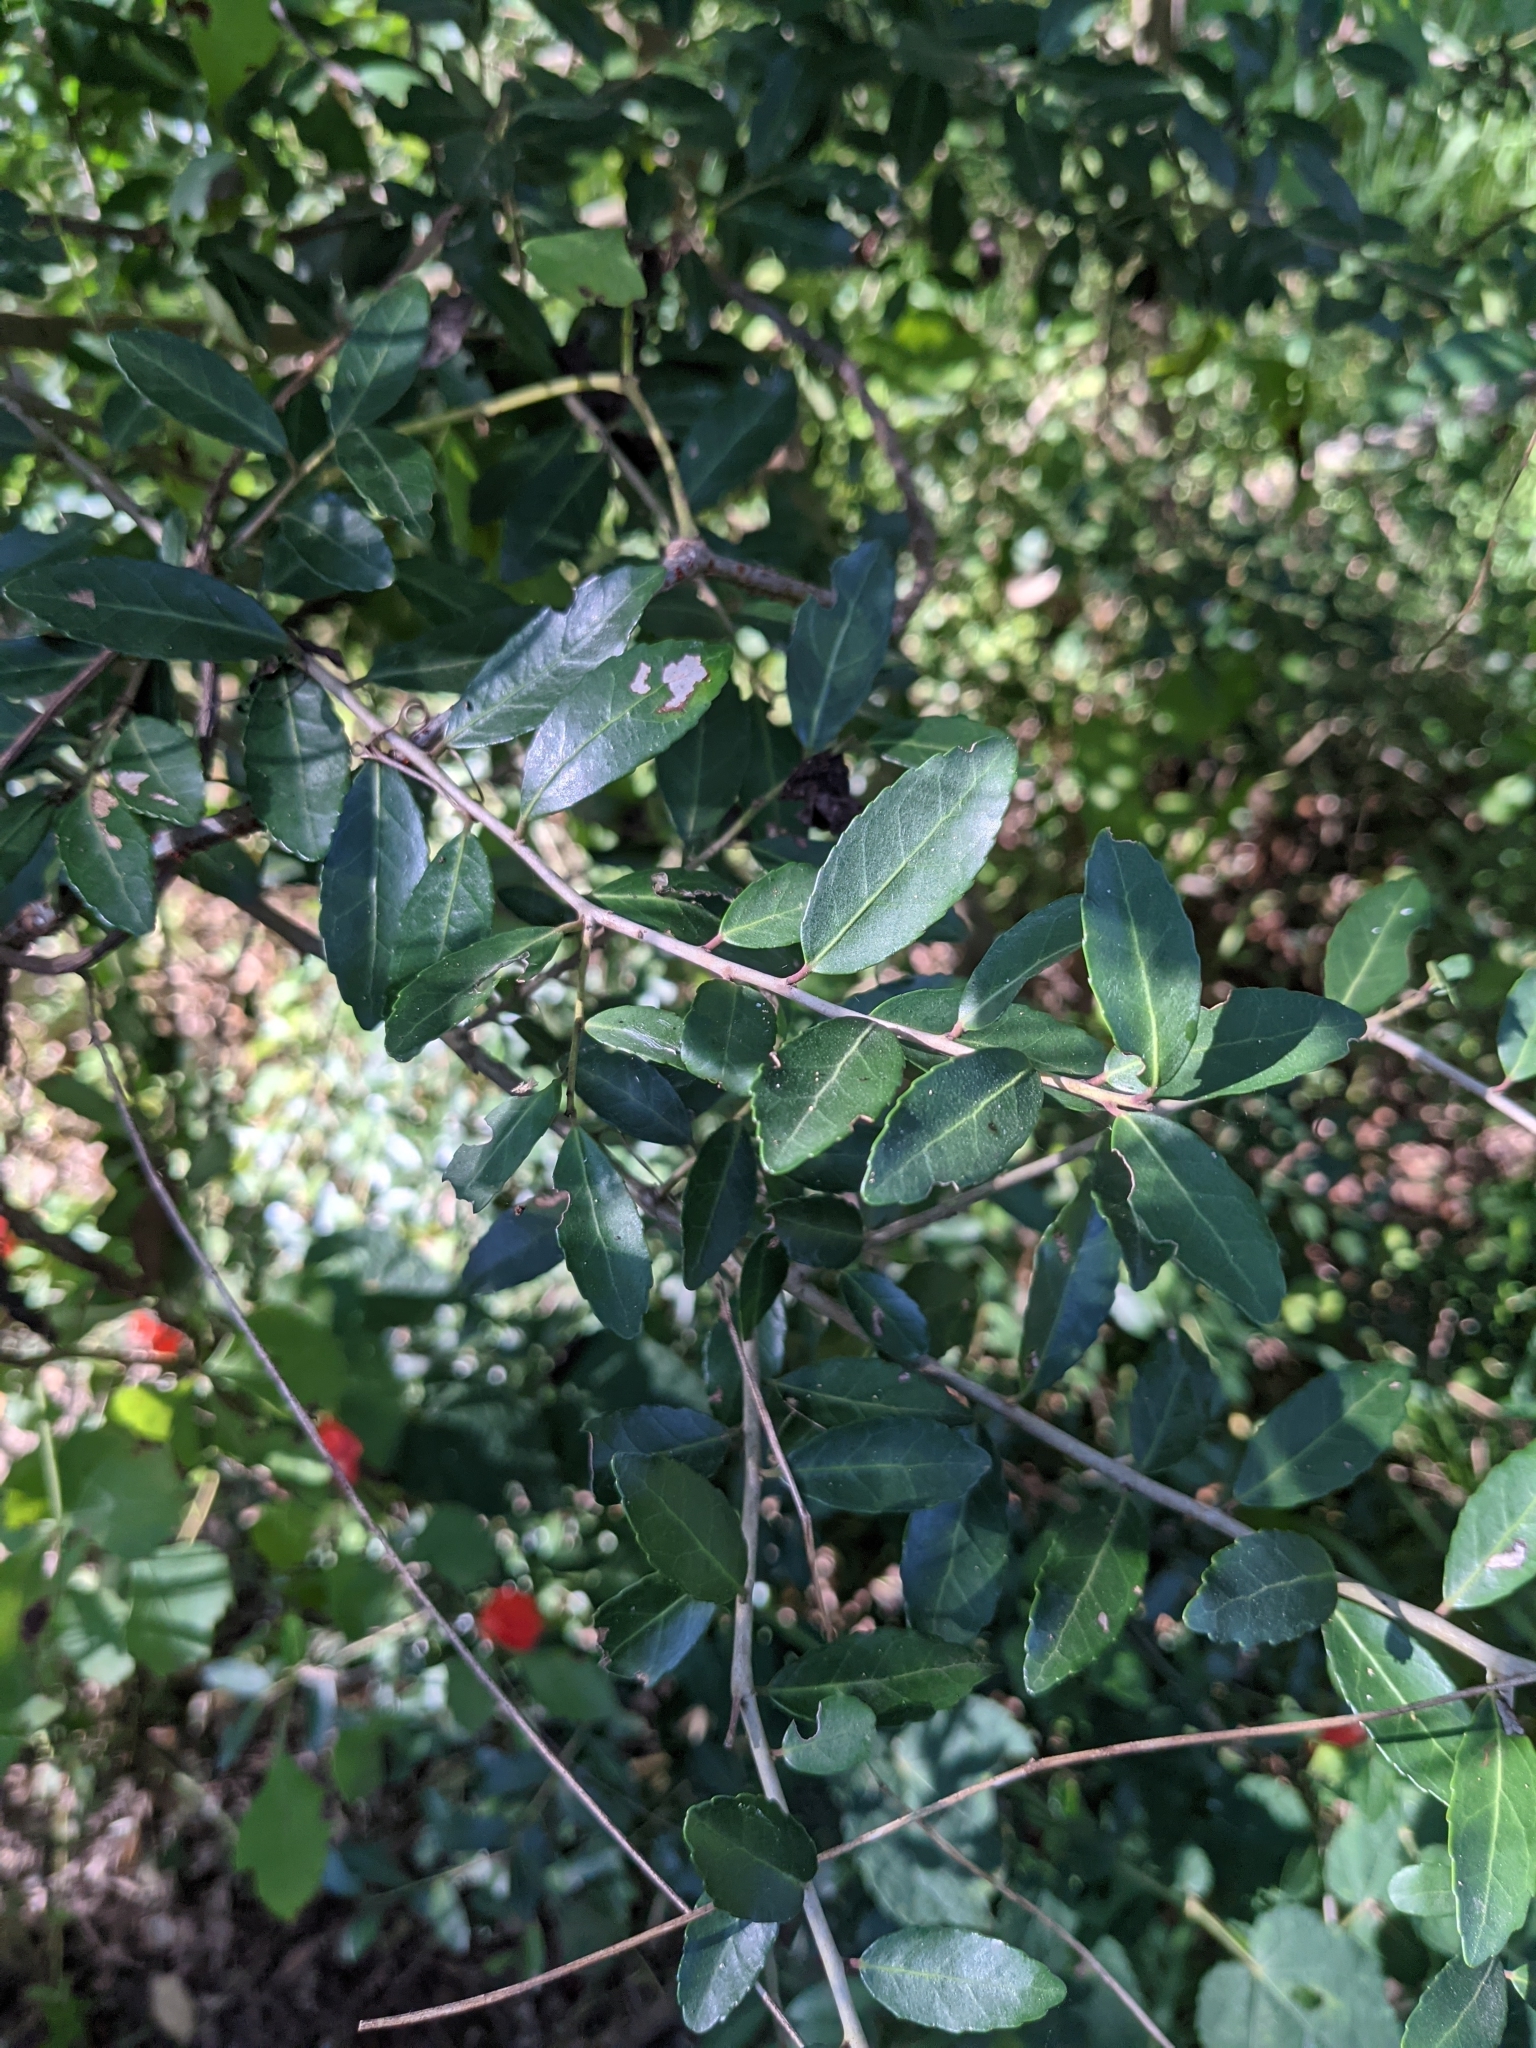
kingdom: Plantae
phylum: Tracheophyta
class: Magnoliopsida
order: Aquifoliales
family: Aquifoliaceae
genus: Ilex
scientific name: Ilex vomitoria
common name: Yaupon holly
